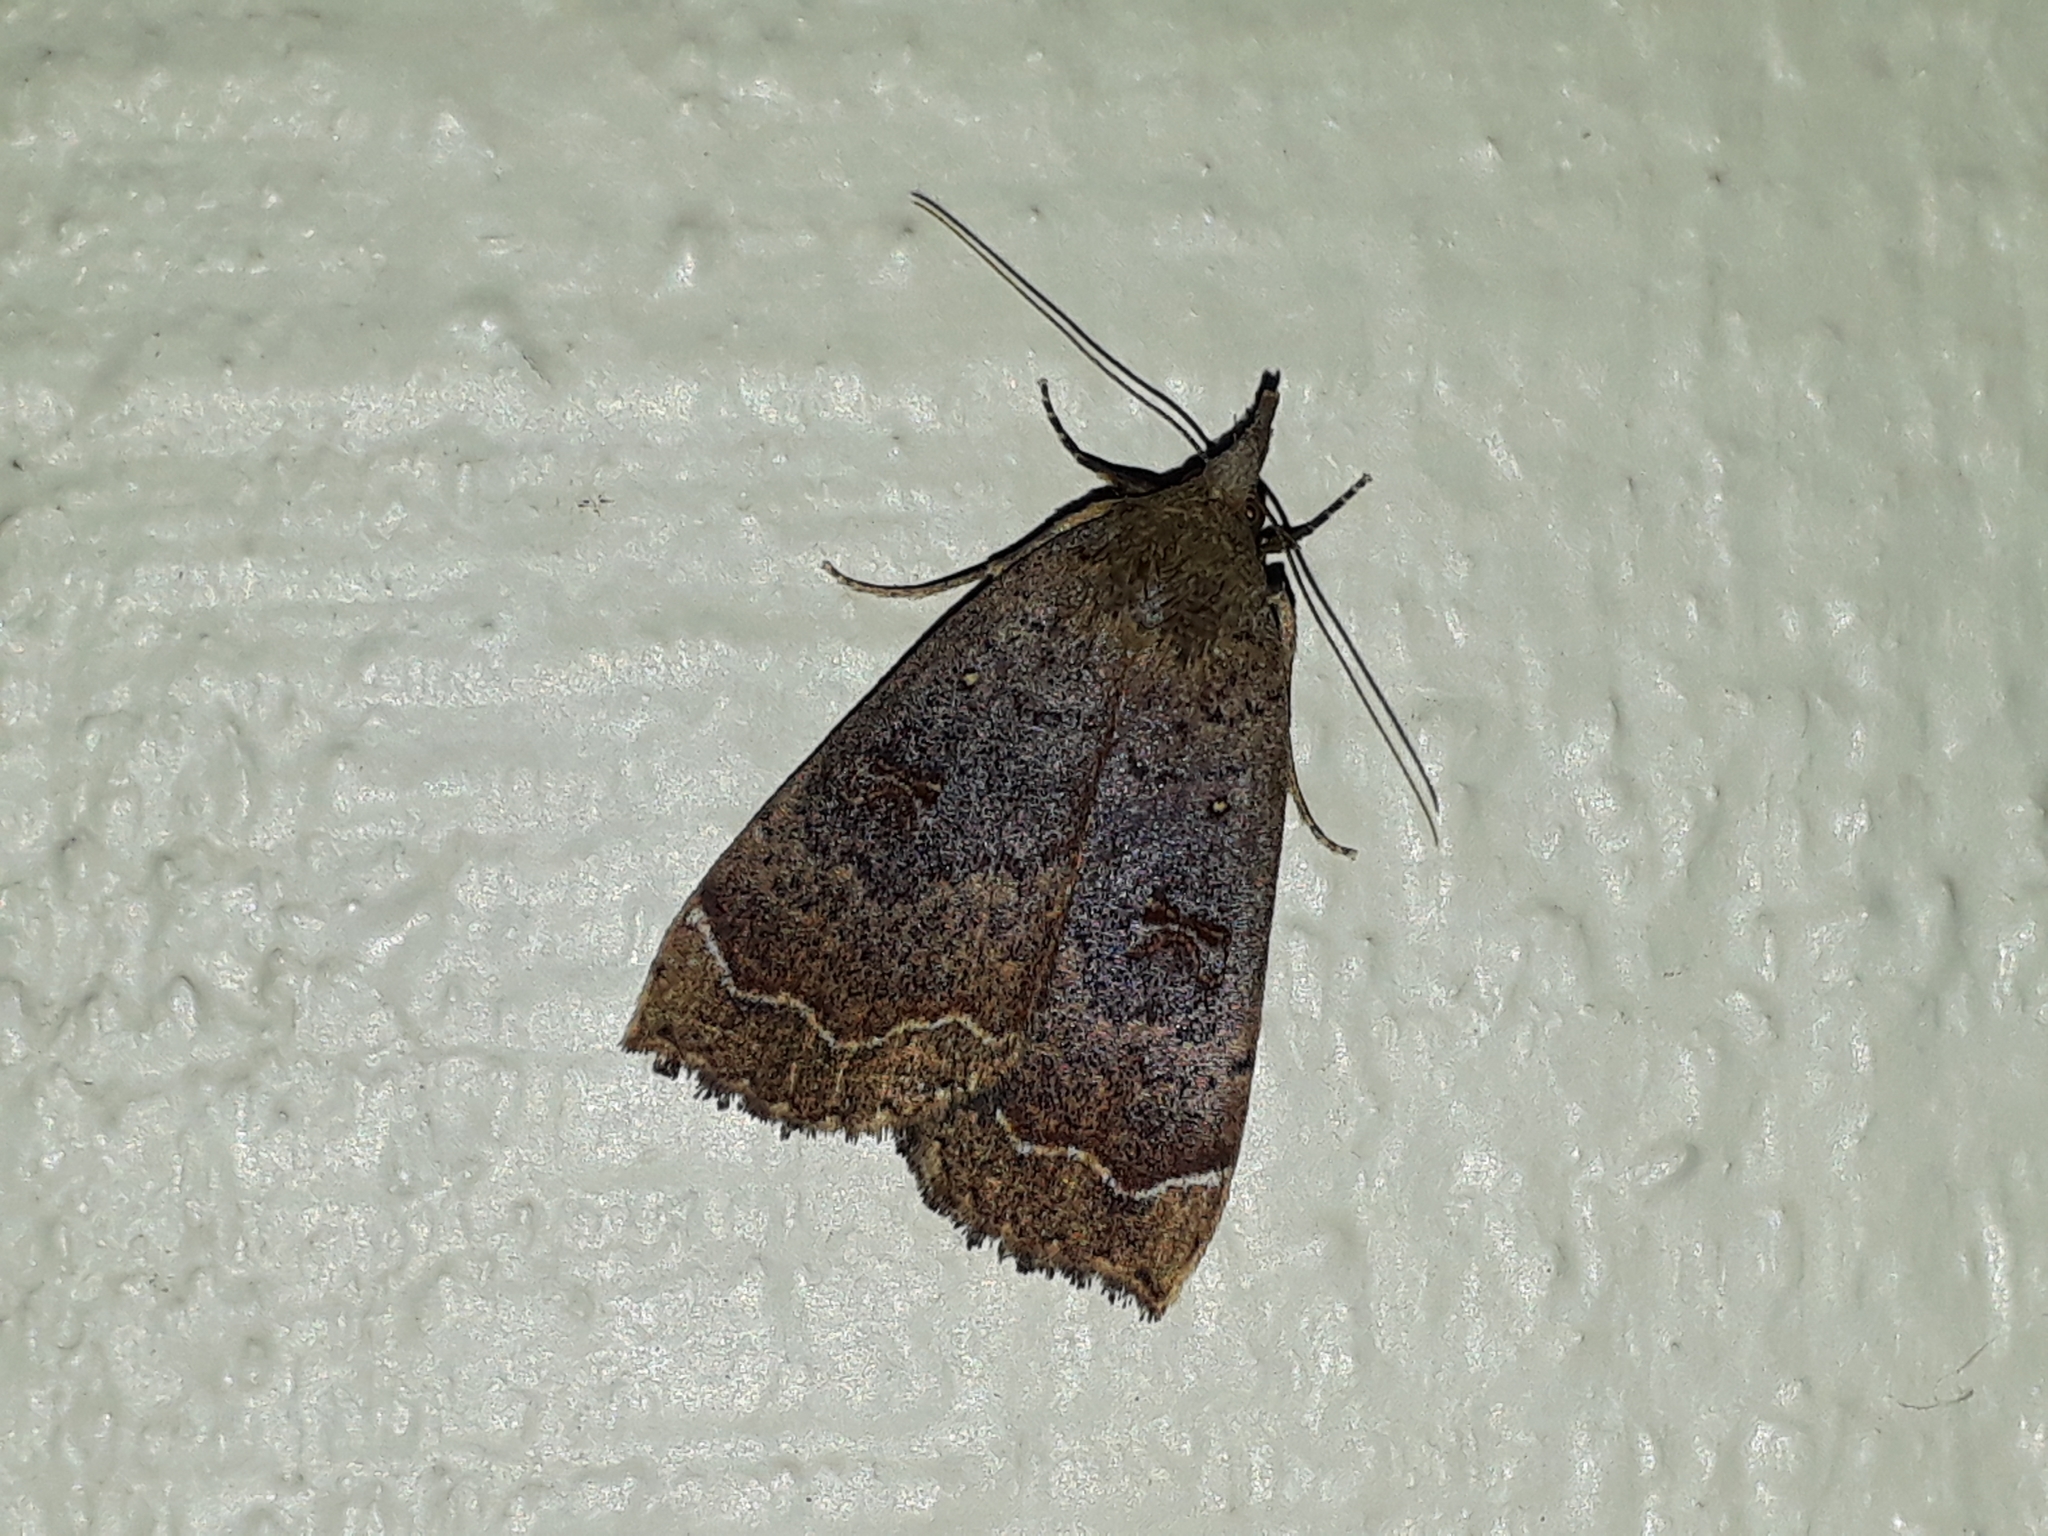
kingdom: Animalia
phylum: Arthropoda
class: Insecta
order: Lepidoptera
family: Erebidae
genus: Rhapsa
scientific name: Rhapsa scotosialis
